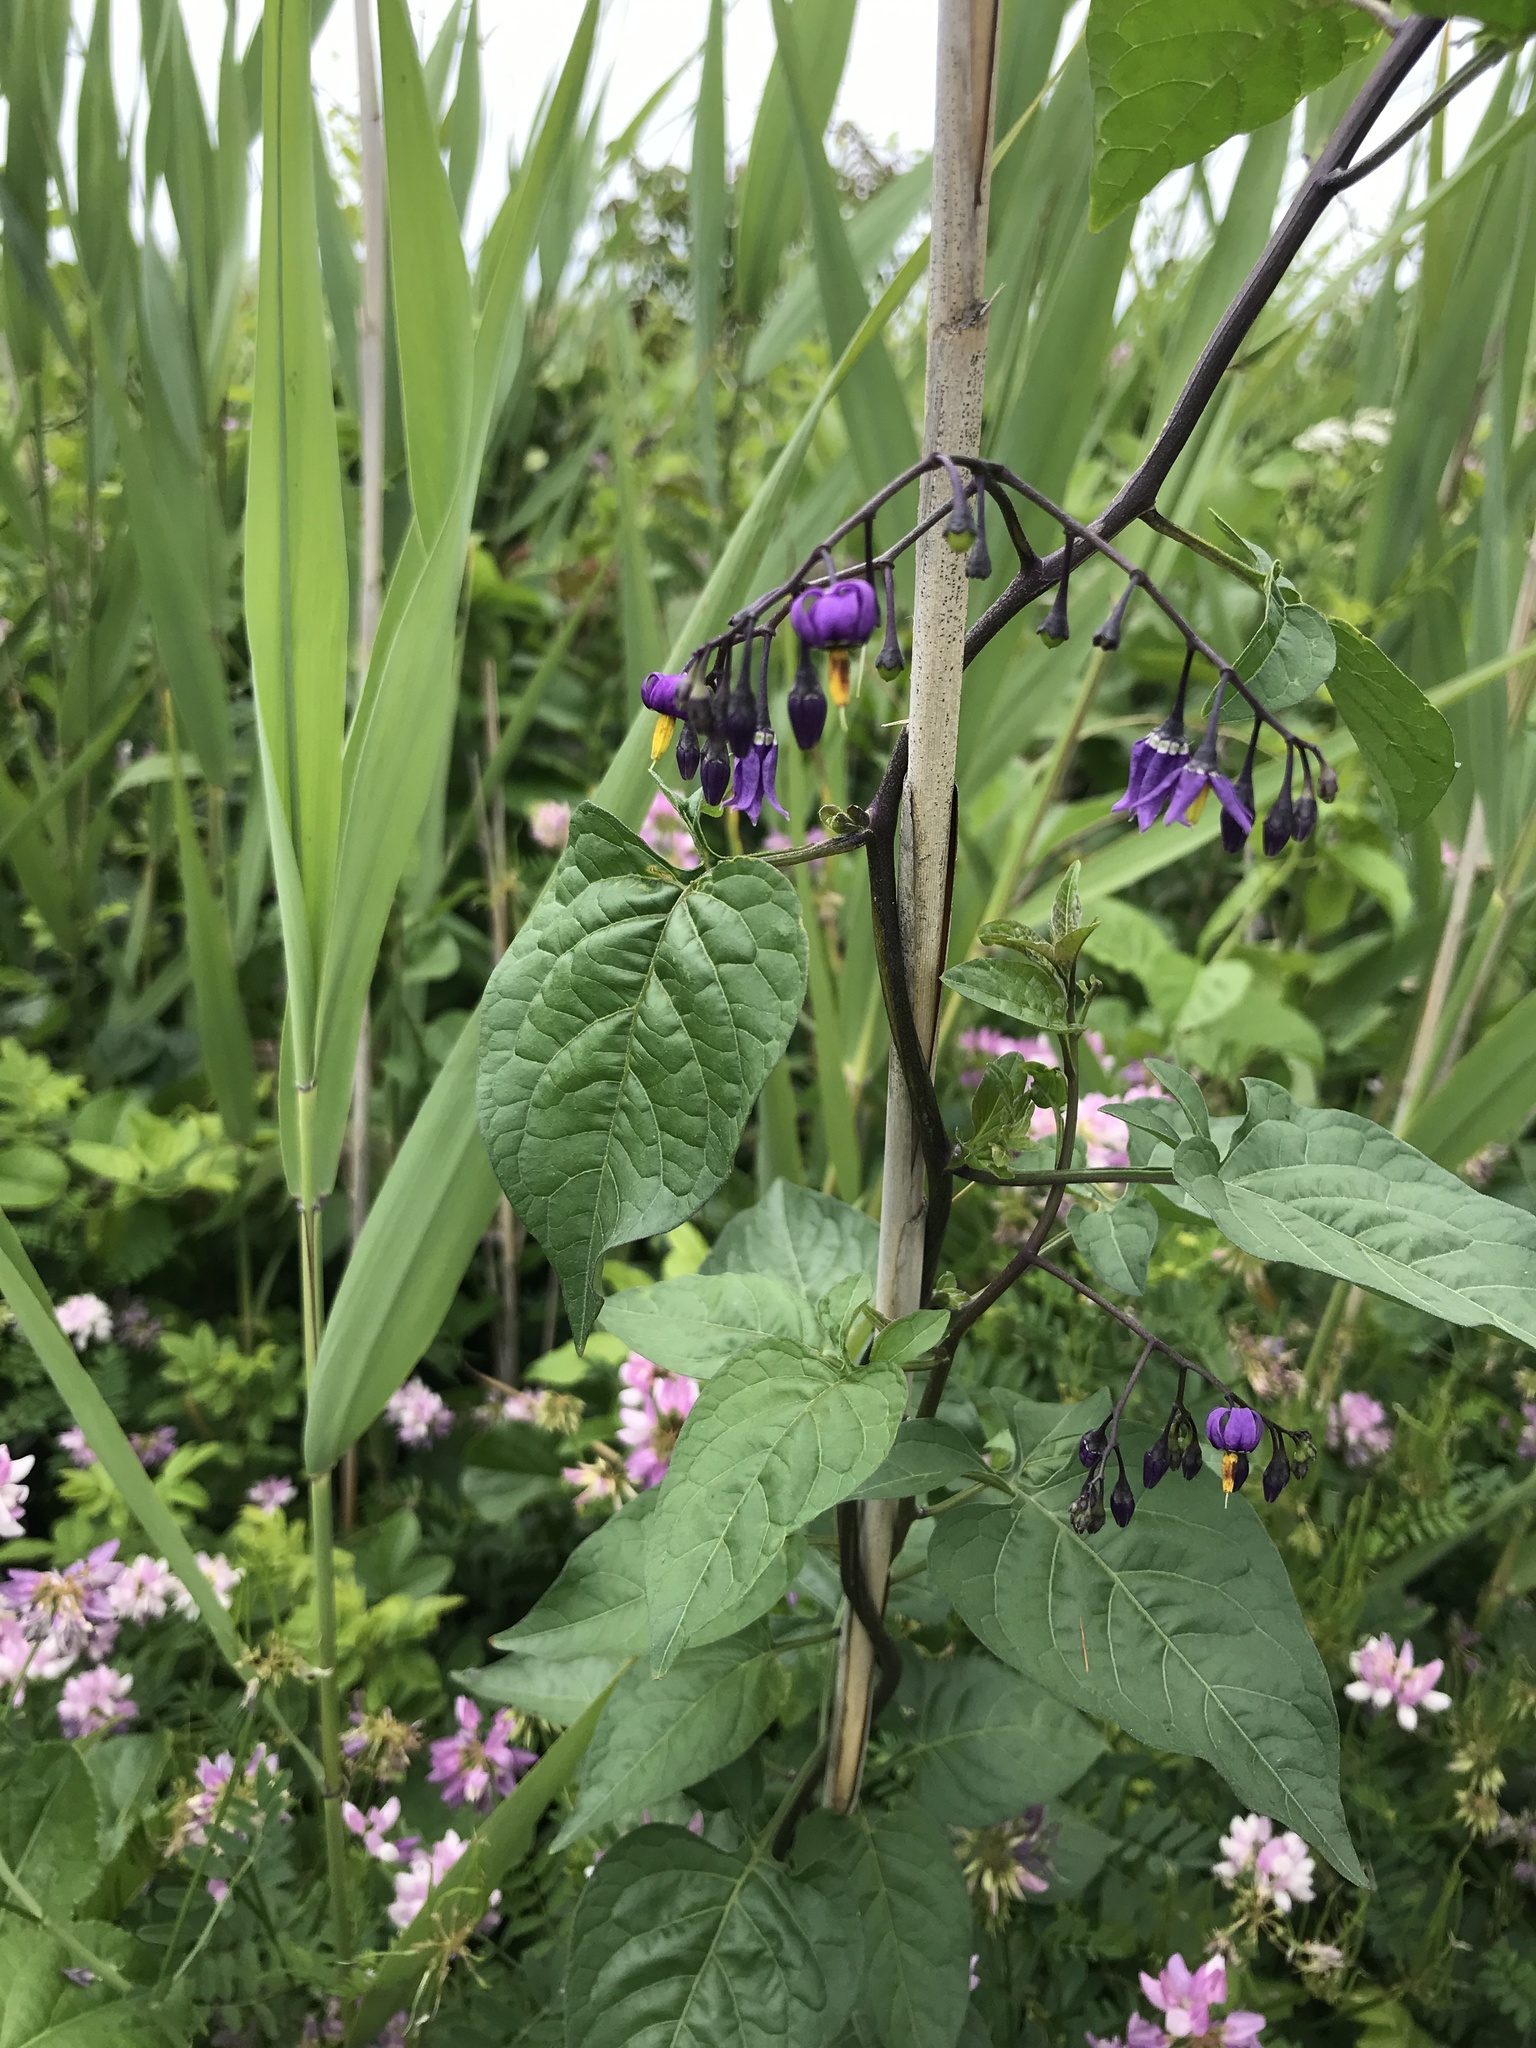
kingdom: Plantae
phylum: Tracheophyta
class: Magnoliopsida
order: Solanales
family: Solanaceae
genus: Solanum
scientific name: Solanum dulcamara
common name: Climbing nightshade
